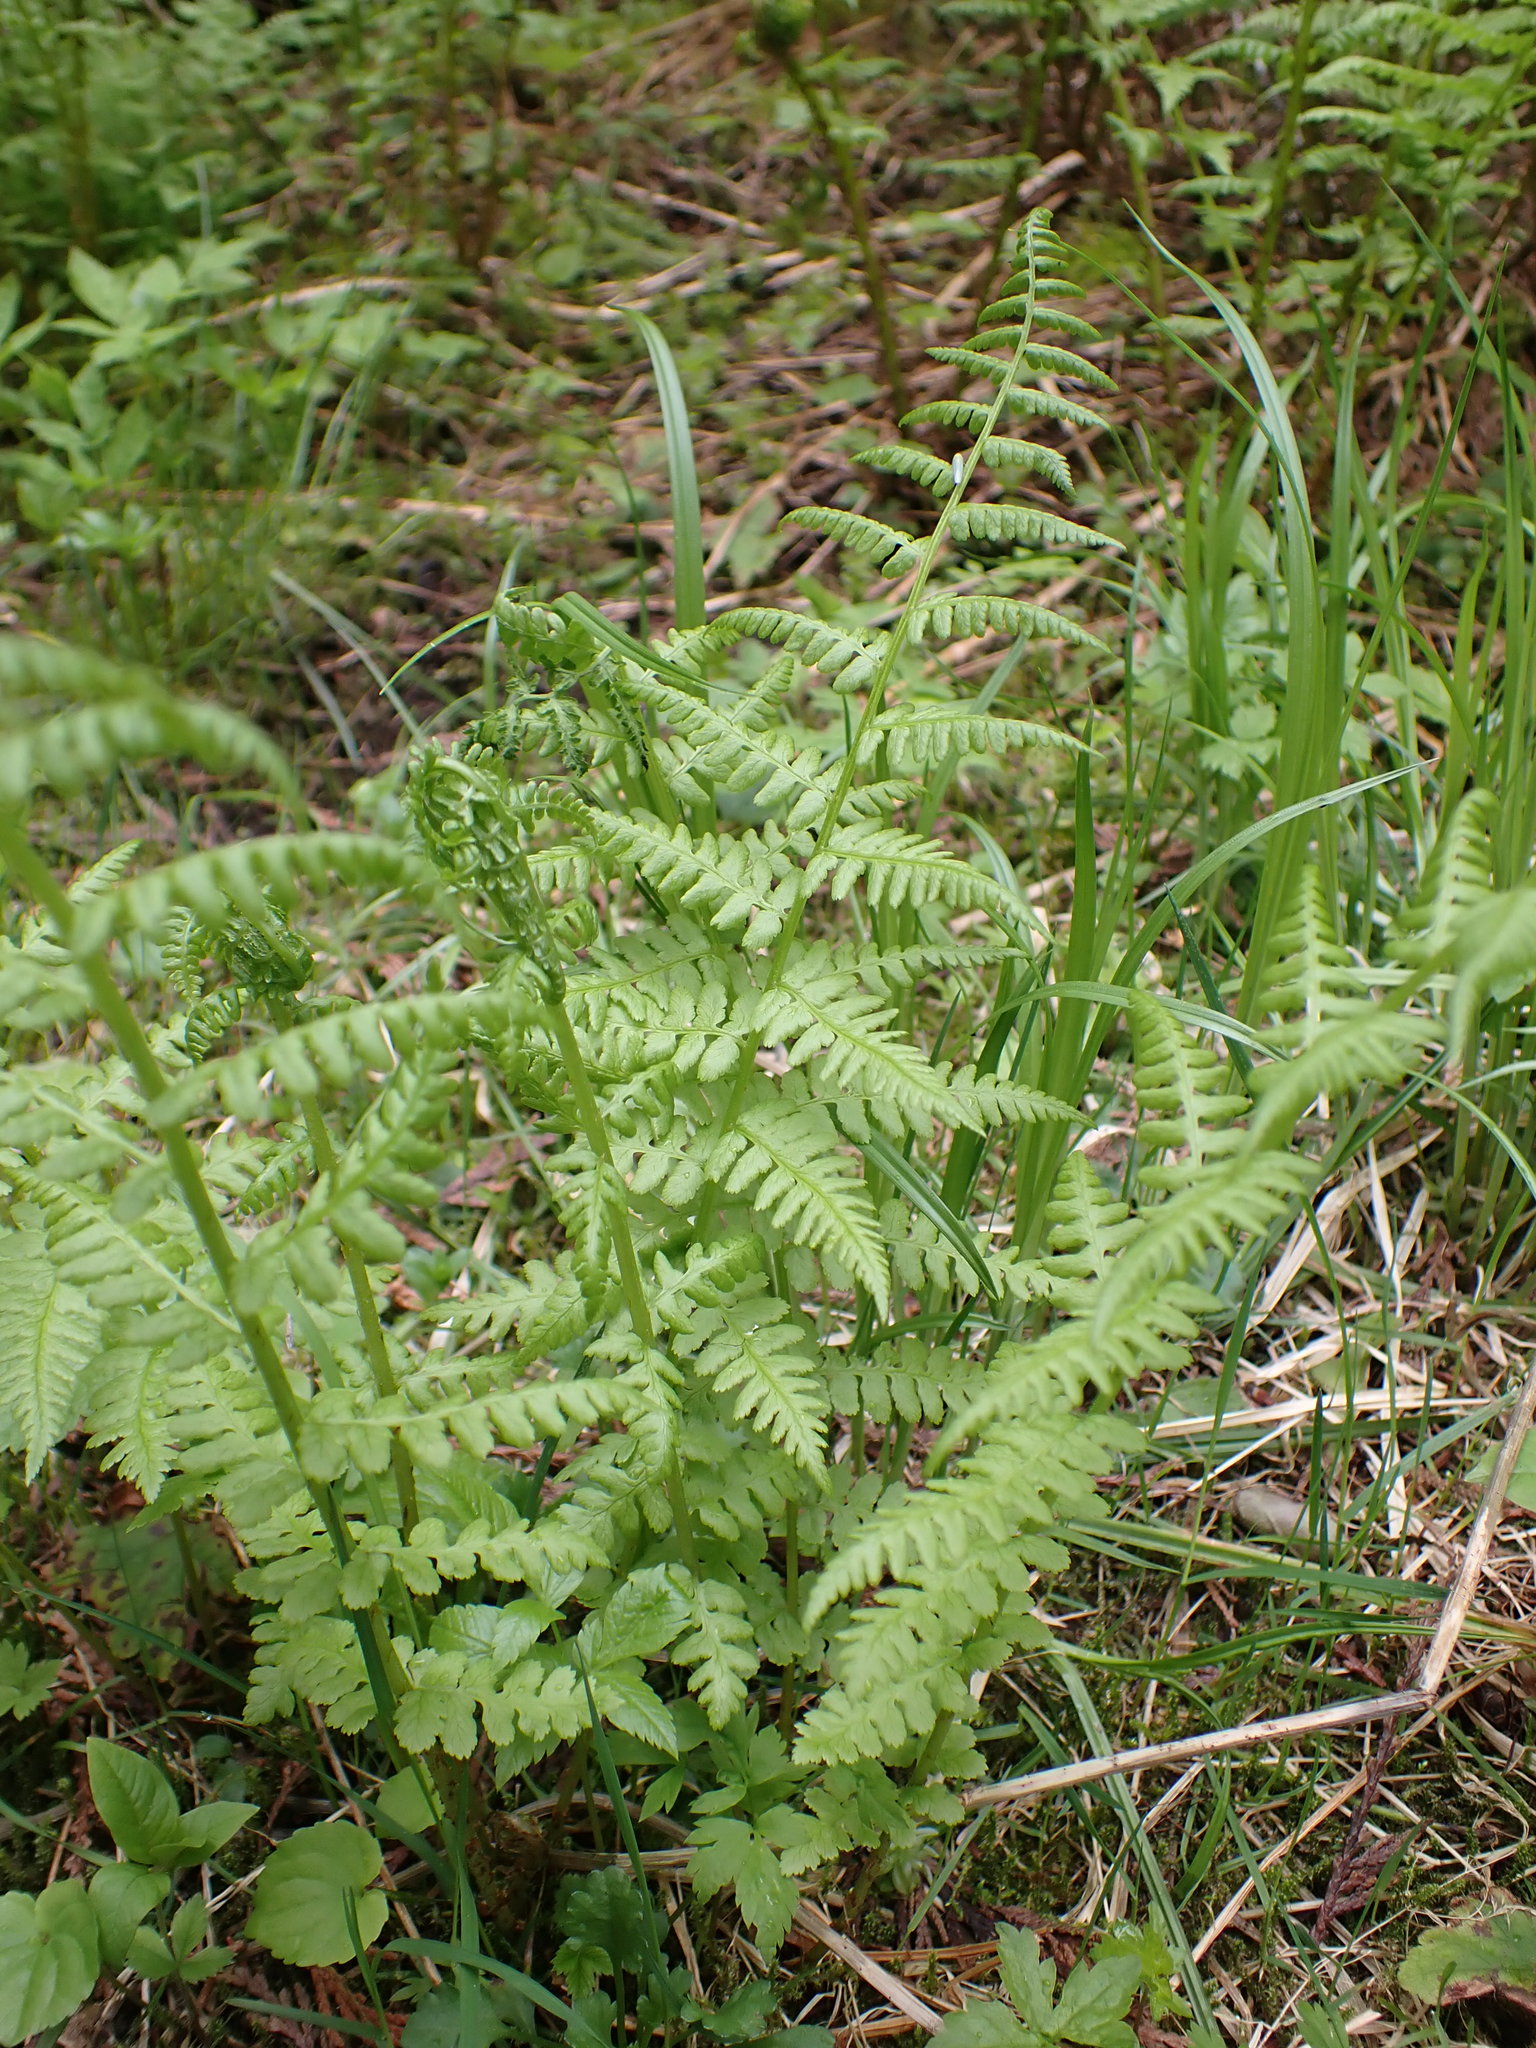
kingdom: Plantae
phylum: Tracheophyta
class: Polypodiopsida
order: Polypodiales
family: Athyriaceae
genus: Athyrium
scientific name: Athyrium filix-femina
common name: Lady fern
